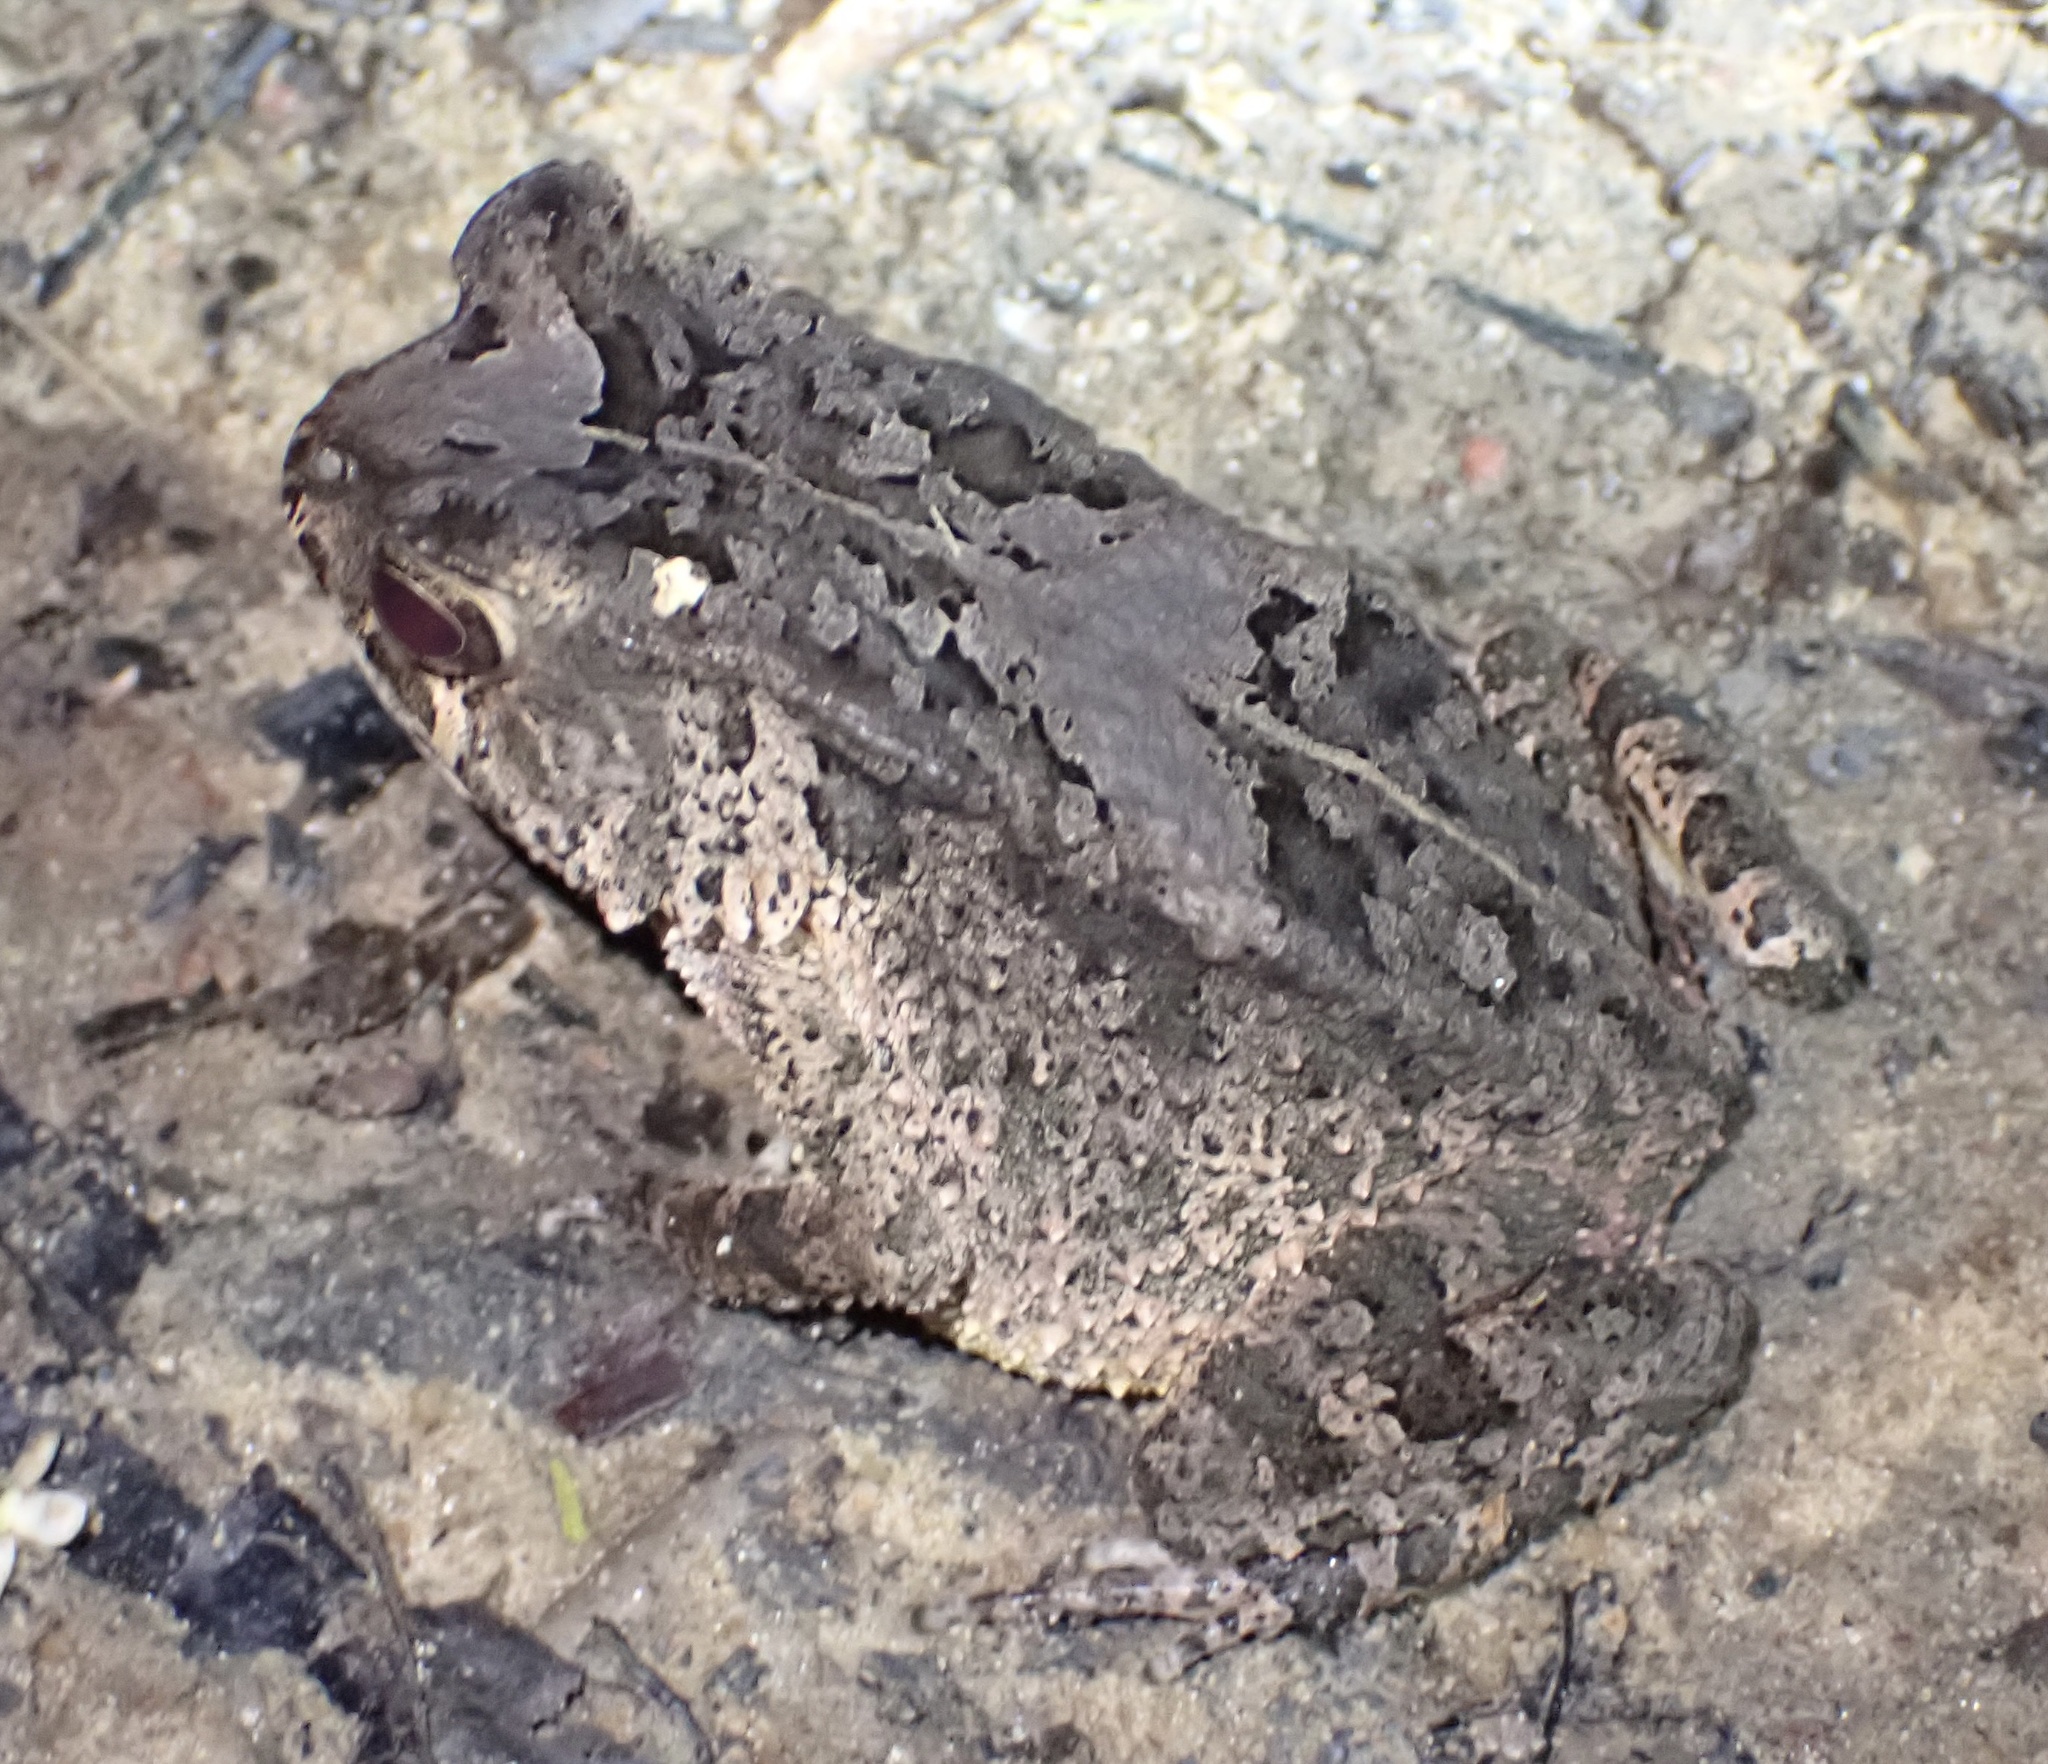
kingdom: Animalia
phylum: Chordata
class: Amphibia
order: Anura
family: Bufonidae
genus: Sclerophrys
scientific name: Sclerophrys togoensis
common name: Togo toad
